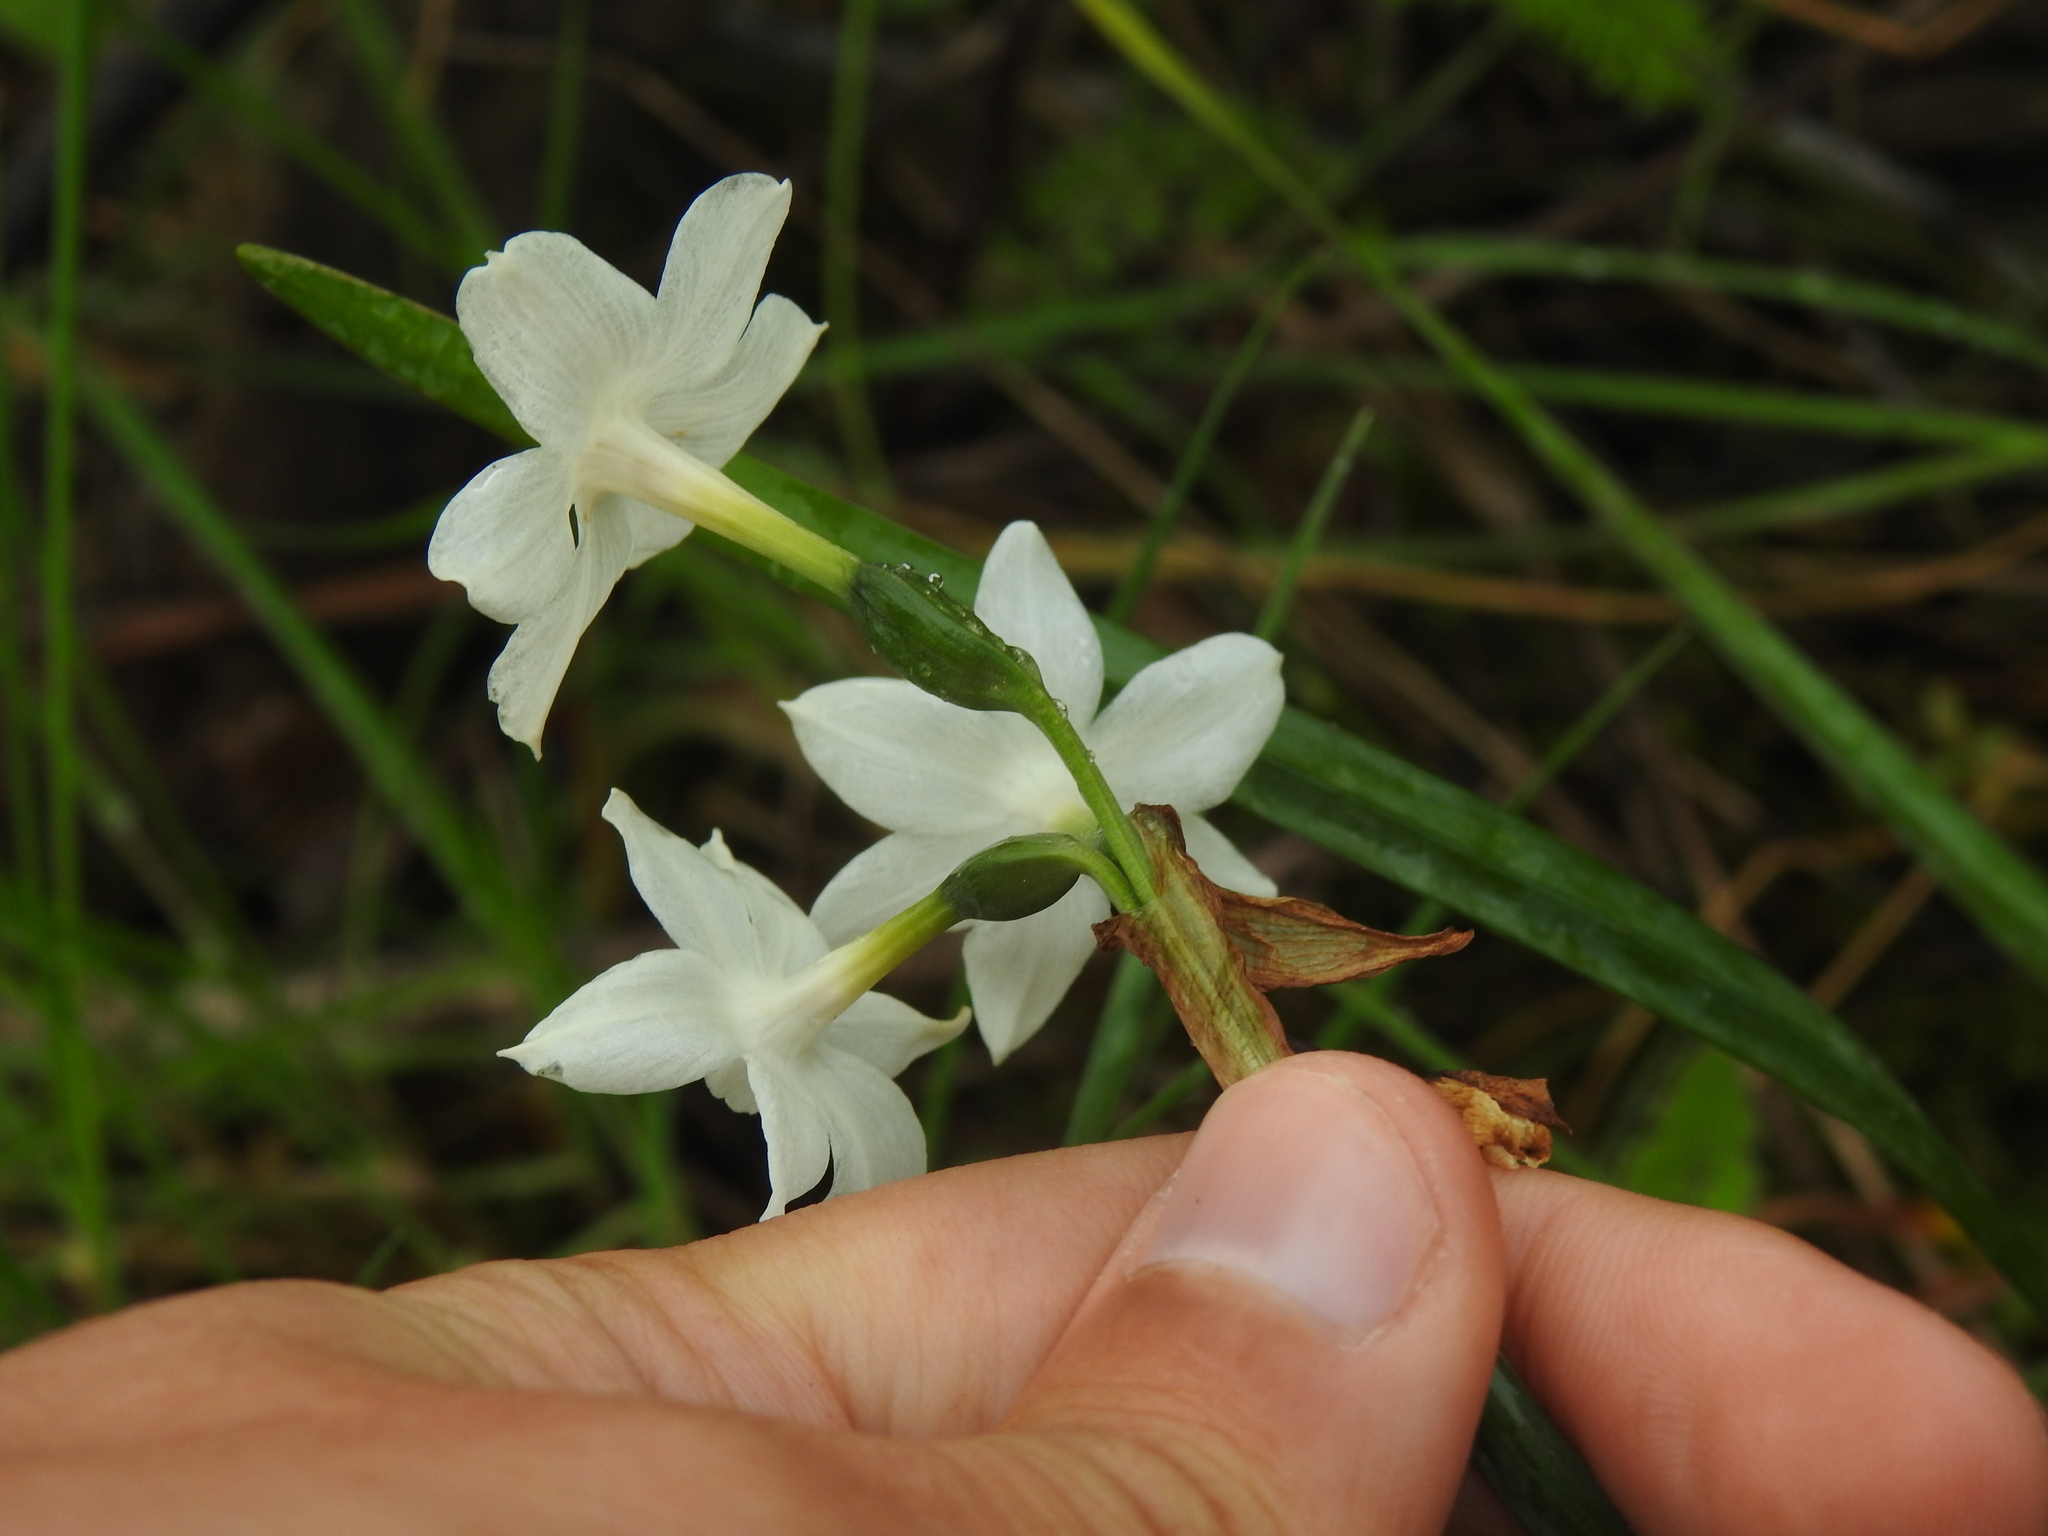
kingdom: Plantae
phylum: Tracheophyta
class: Liliopsida
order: Asparagales
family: Amaryllidaceae
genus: Narcissus
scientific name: Narcissus papyraceus
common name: Paper-white daffodil
